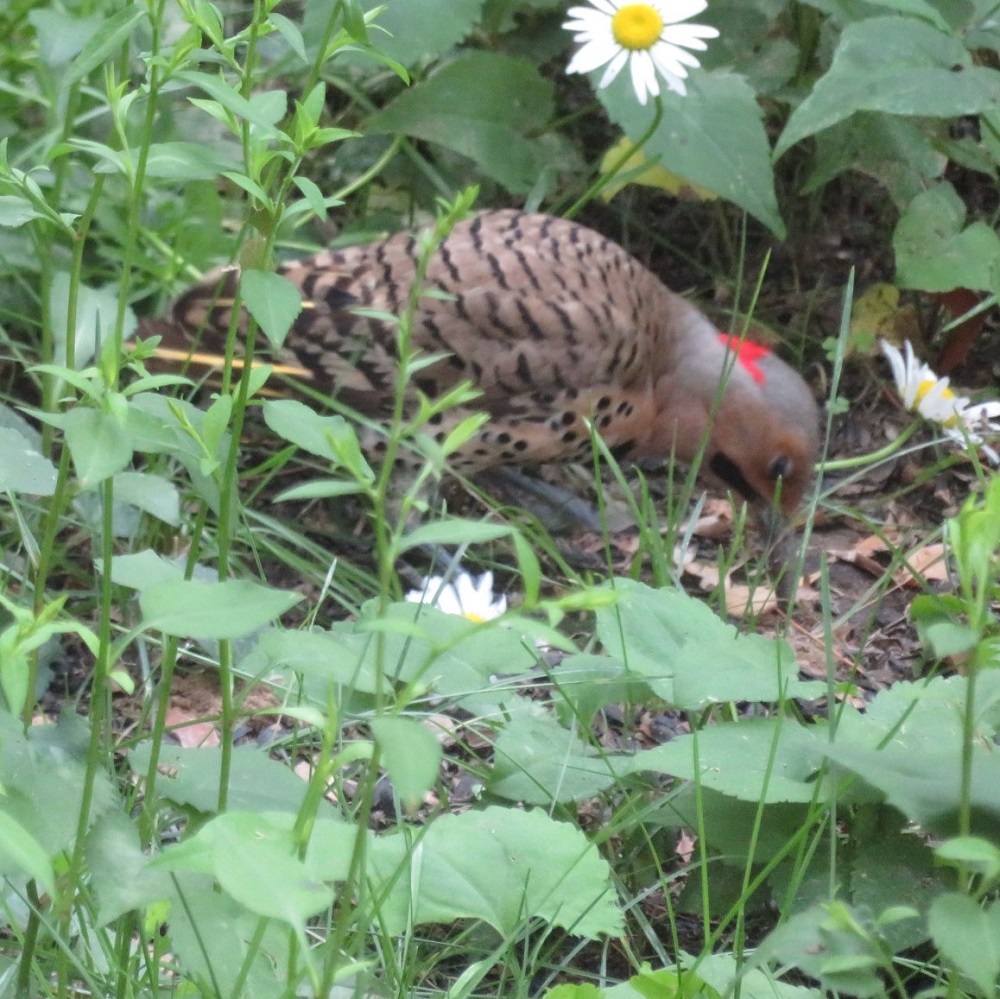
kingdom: Animalia
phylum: Chordata
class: Aves
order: Piciformes
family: Picidae
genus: Colaptes
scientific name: Colaptes auratus
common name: Northern flicker
